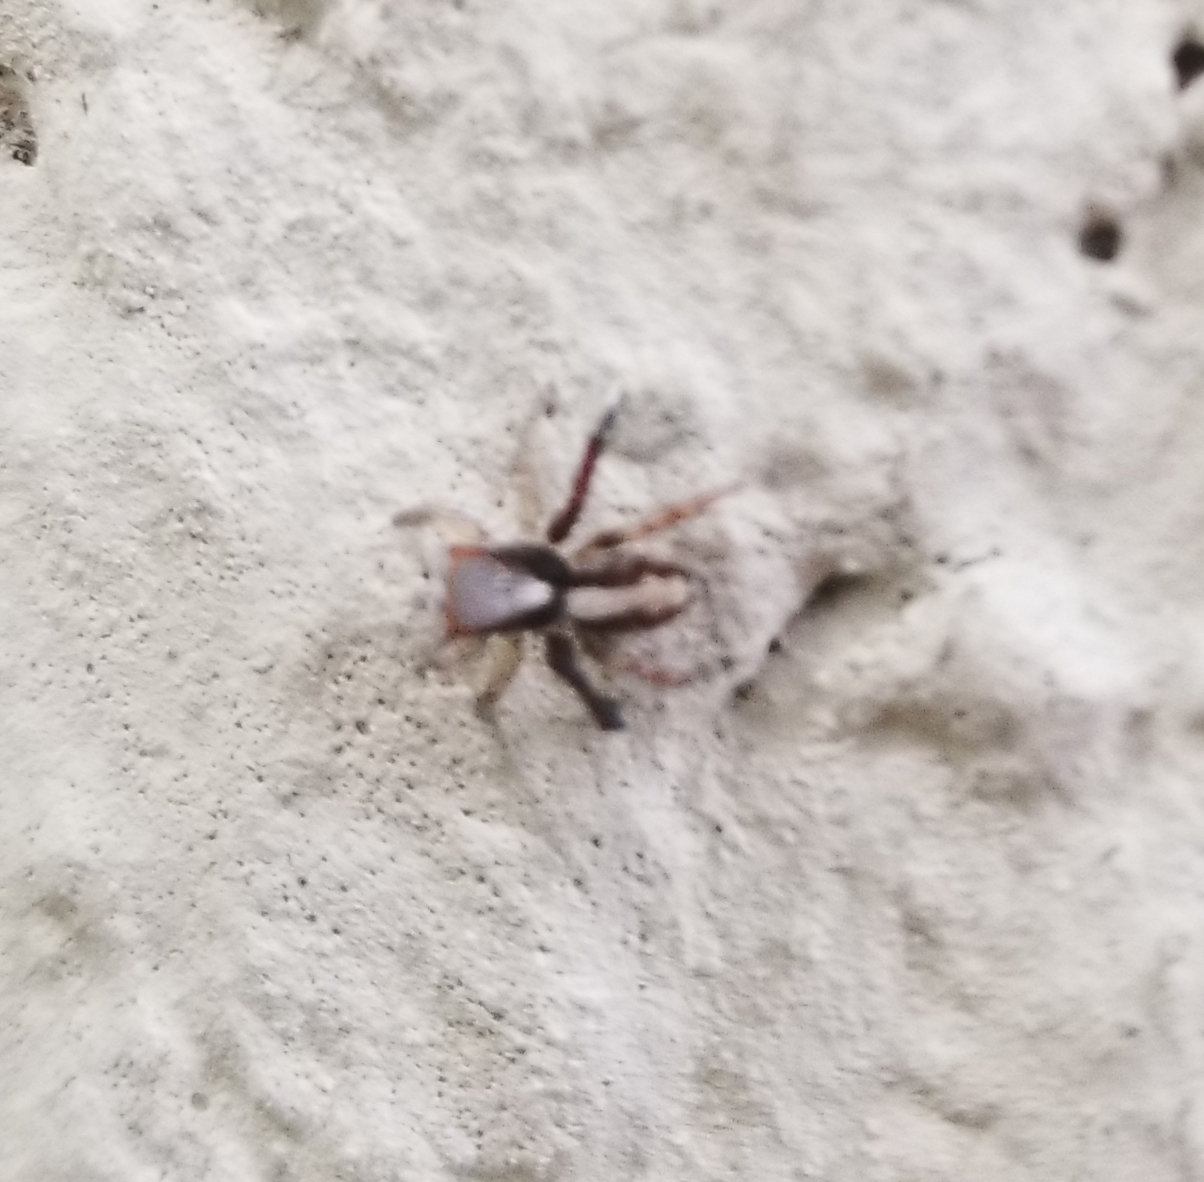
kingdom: Animalia
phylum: Arthropoda
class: Arachnida
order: Araneae
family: Salticidae
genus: Saitis
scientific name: Saitis barbipes
